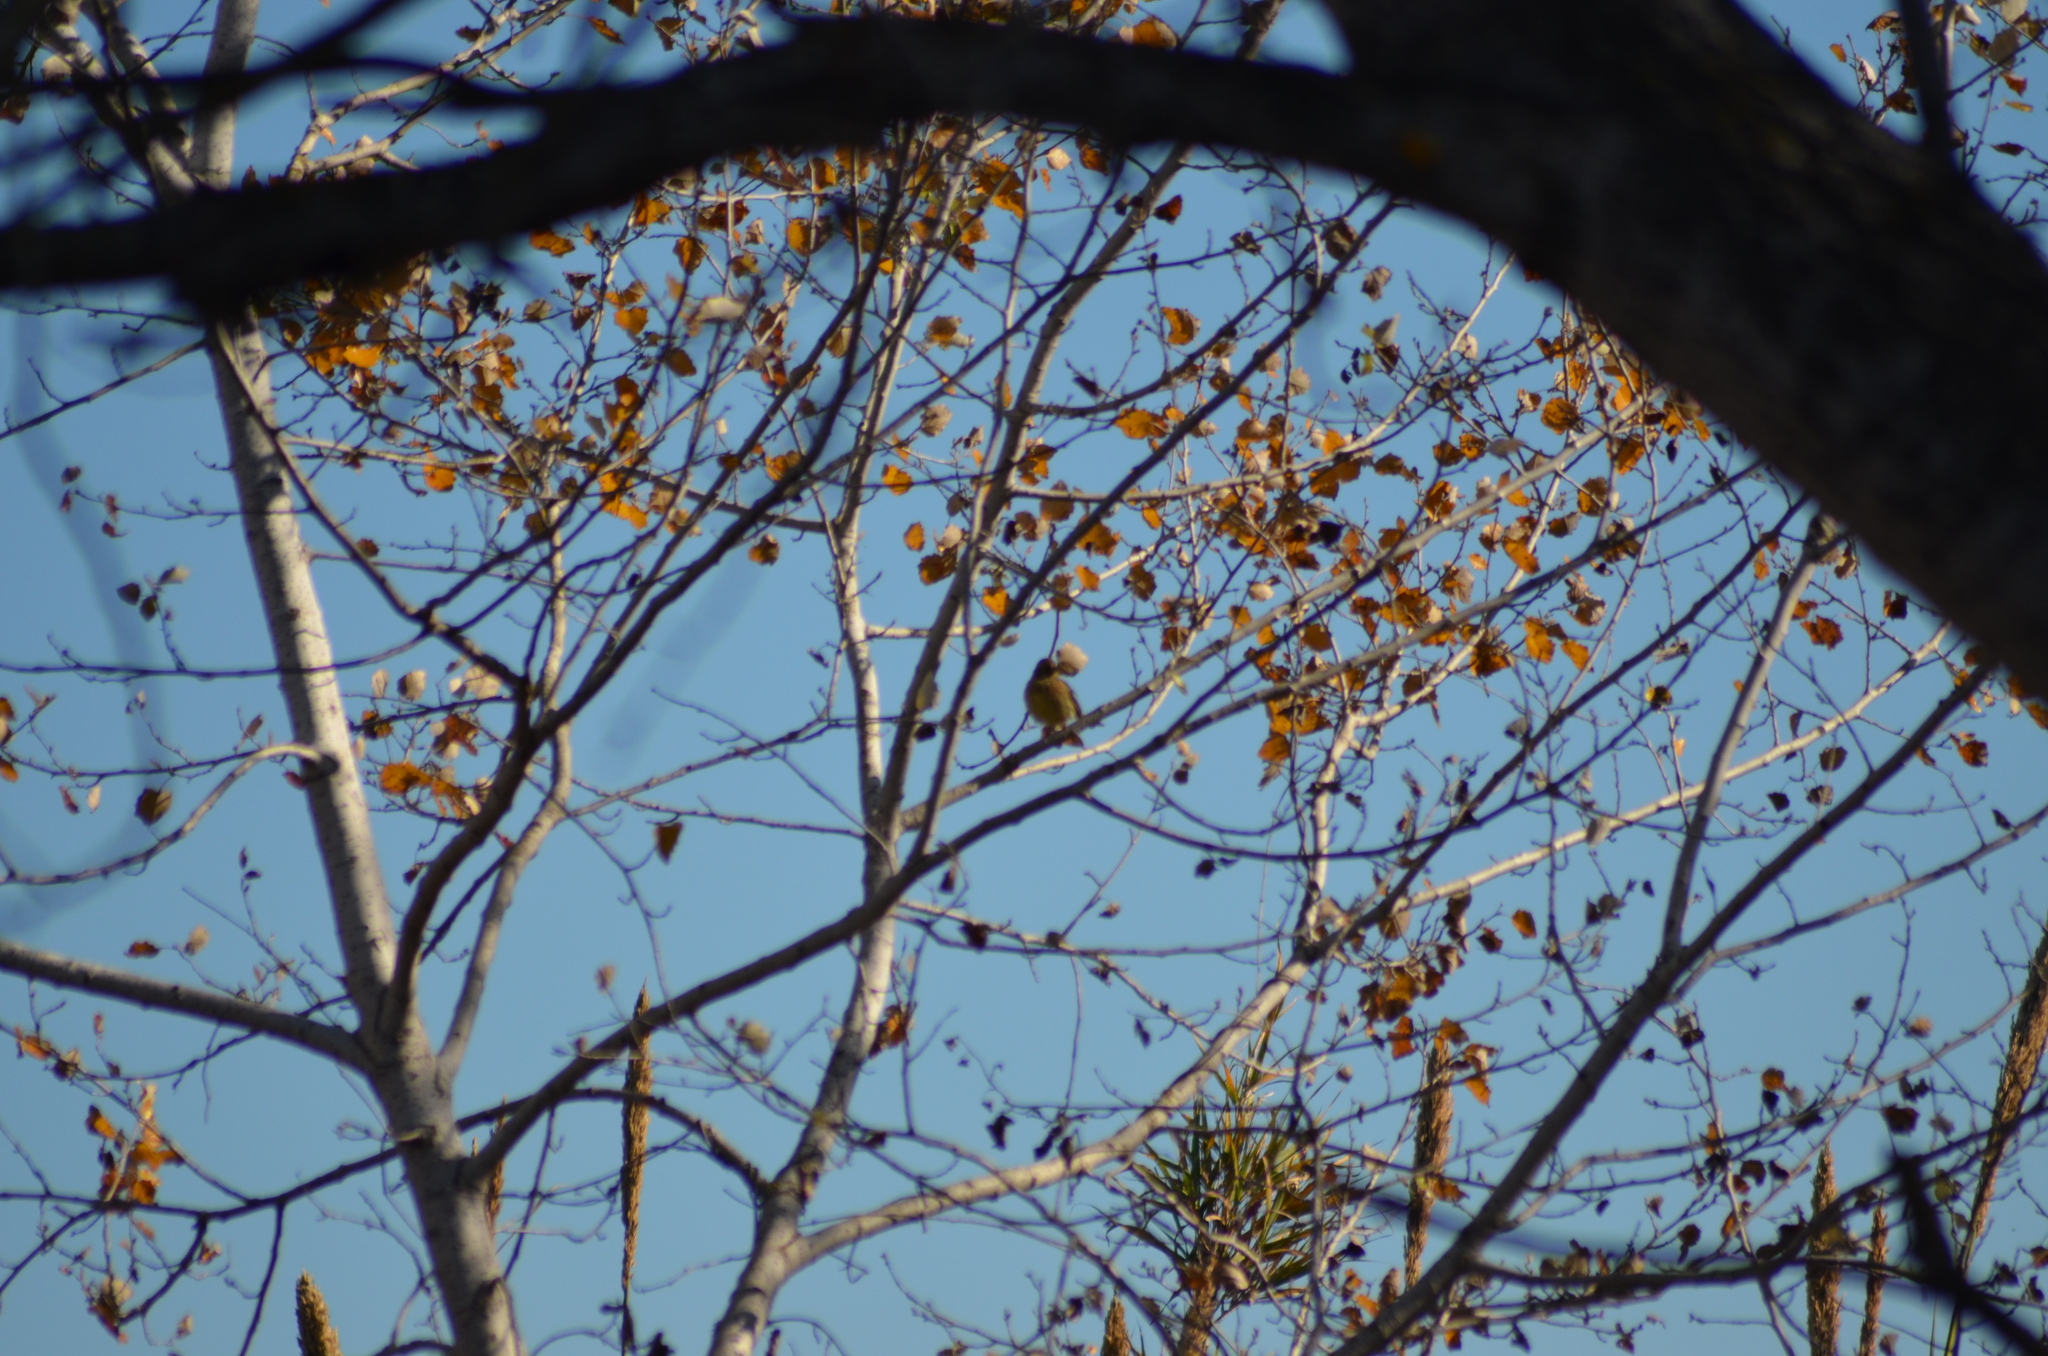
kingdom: Animalia
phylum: Chordata
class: Aves
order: Passeriformes
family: Emberizidae
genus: Emberiza
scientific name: Emberiza cirlus
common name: Cirl bunting
